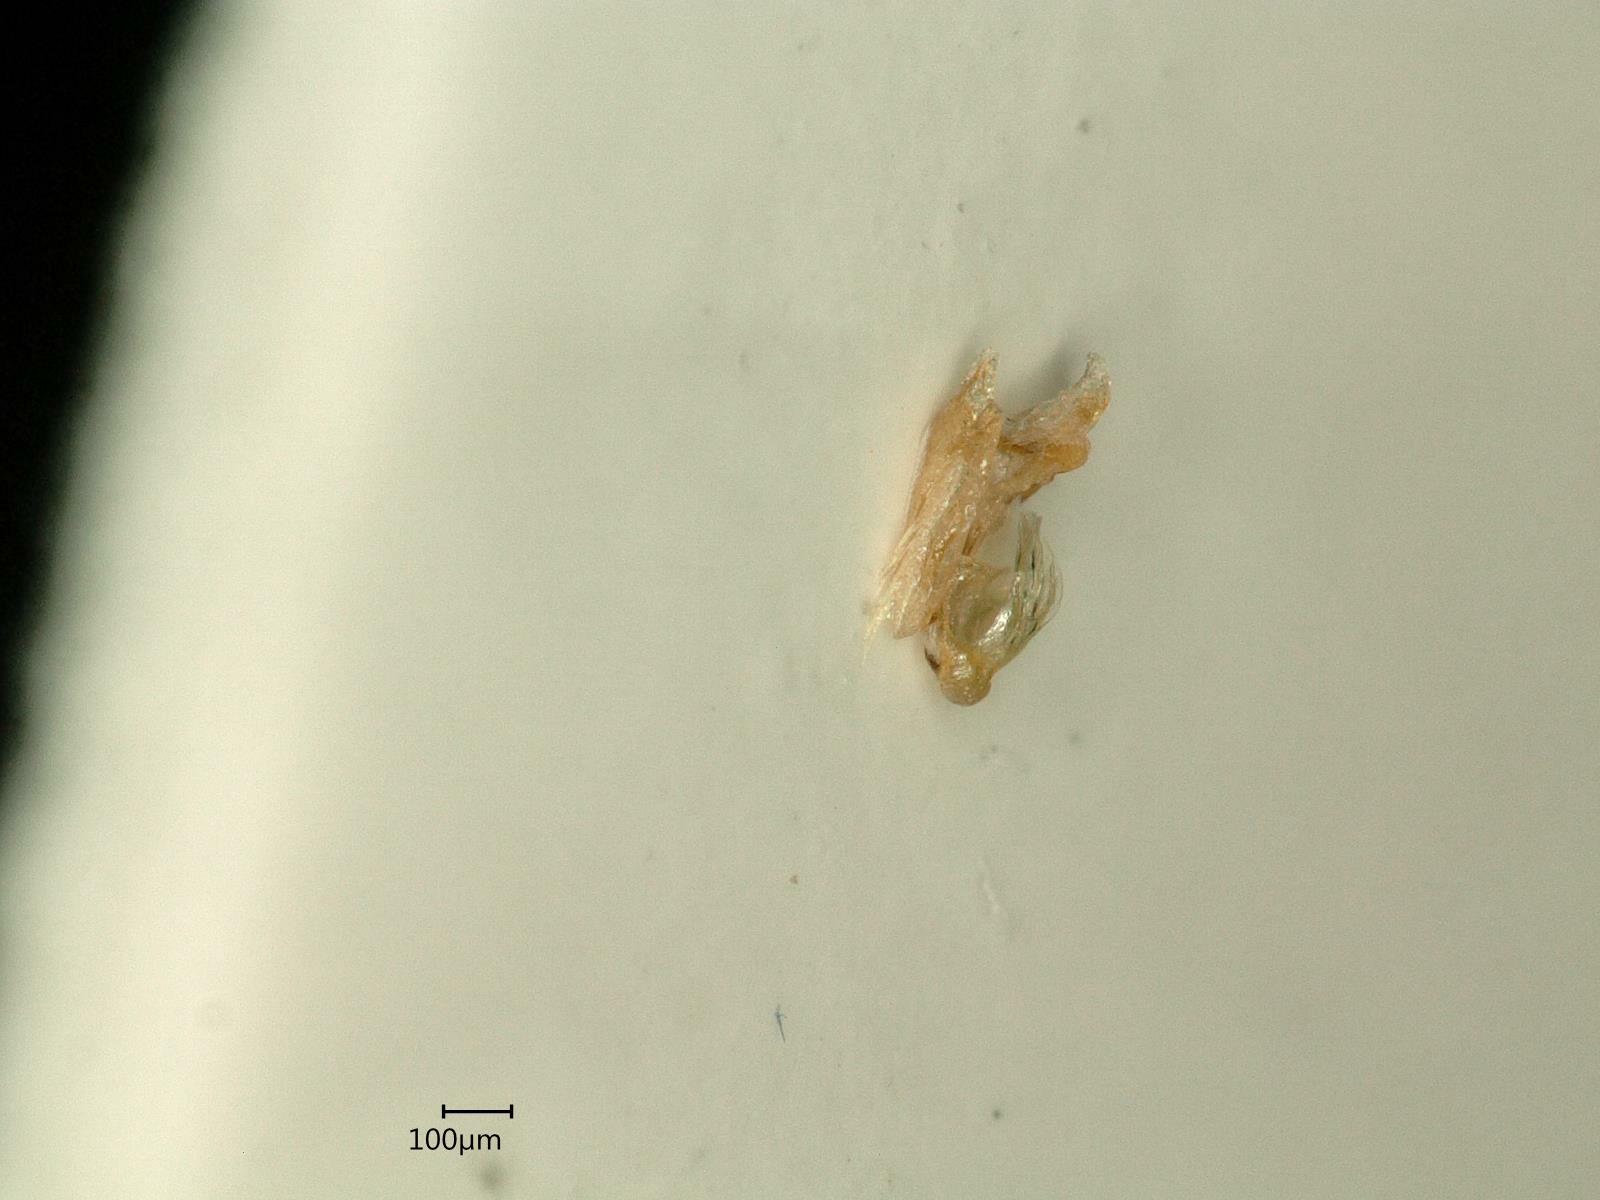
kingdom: Animalia
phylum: Arthropoda
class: Insecta
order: Hemiptera
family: Cicadellidae
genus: Psammotettix
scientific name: Psammotettix confinis
